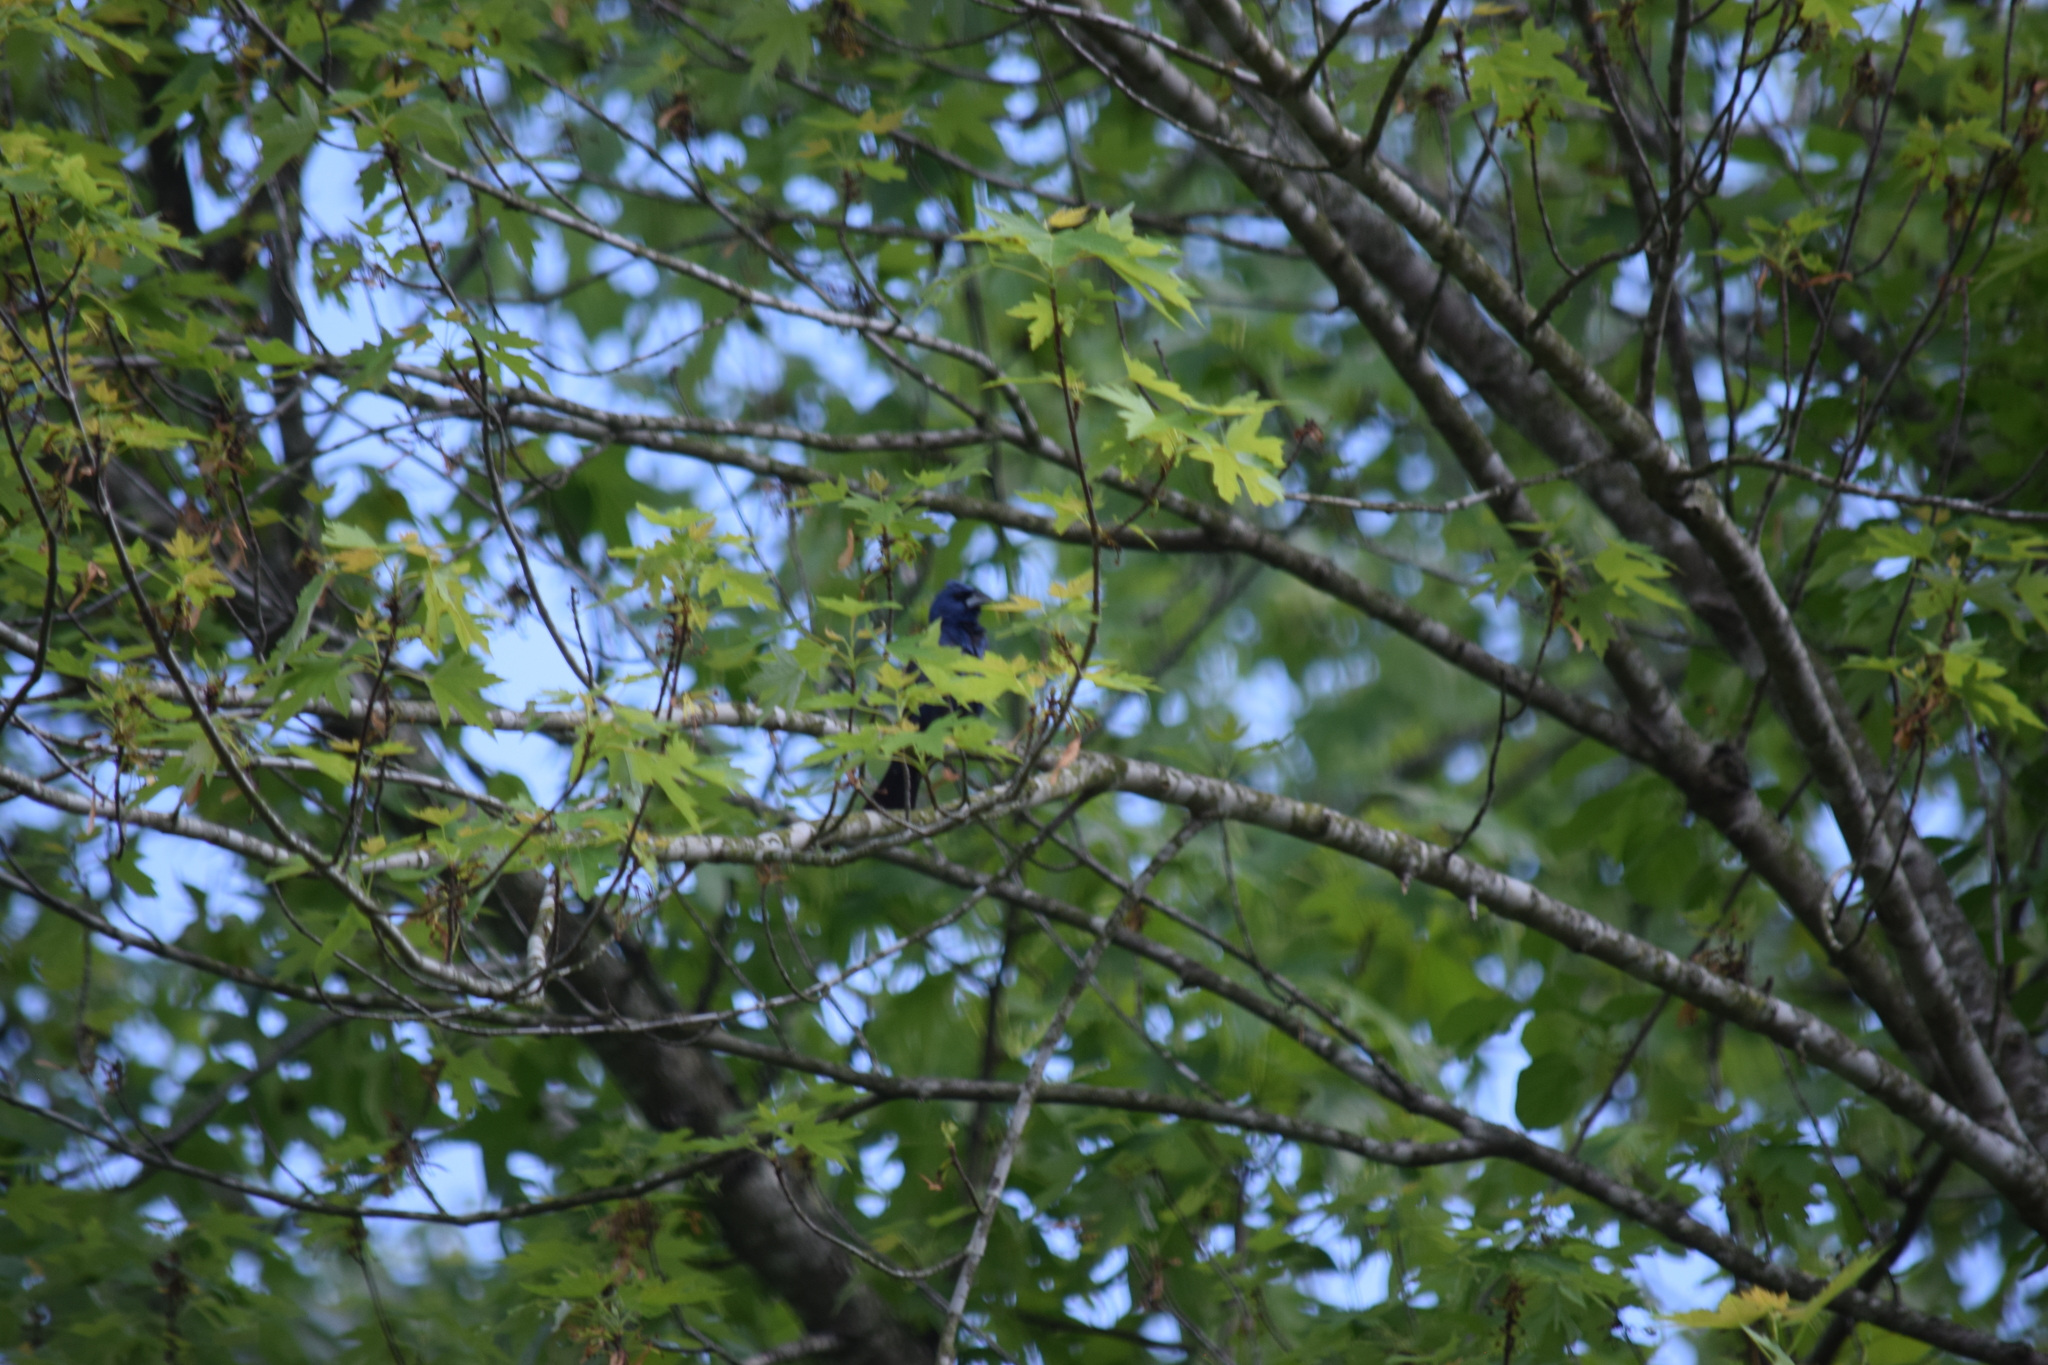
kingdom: Animalia
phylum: Chordata
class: Aves
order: Passeriformes
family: Cardinalidae
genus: Passerina
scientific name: Passerina caerulea
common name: Blue grosbeak
